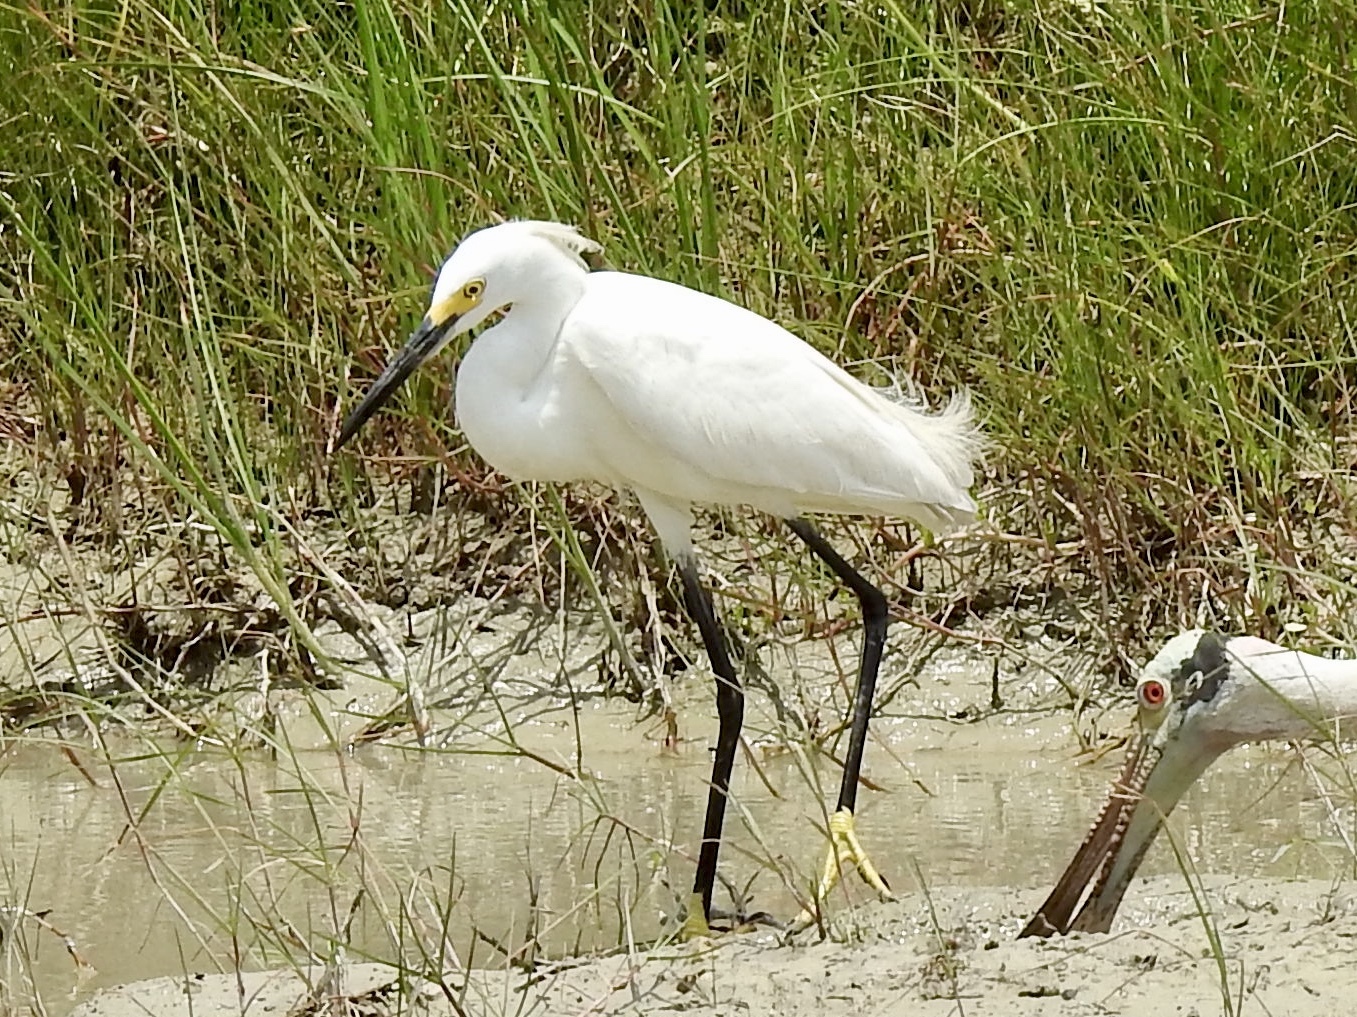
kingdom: Animalia
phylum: Chordata
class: Aves
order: Pelecaniformes
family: Ardeidae
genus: Egretta
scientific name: Egretta thula
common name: Snowy egret
